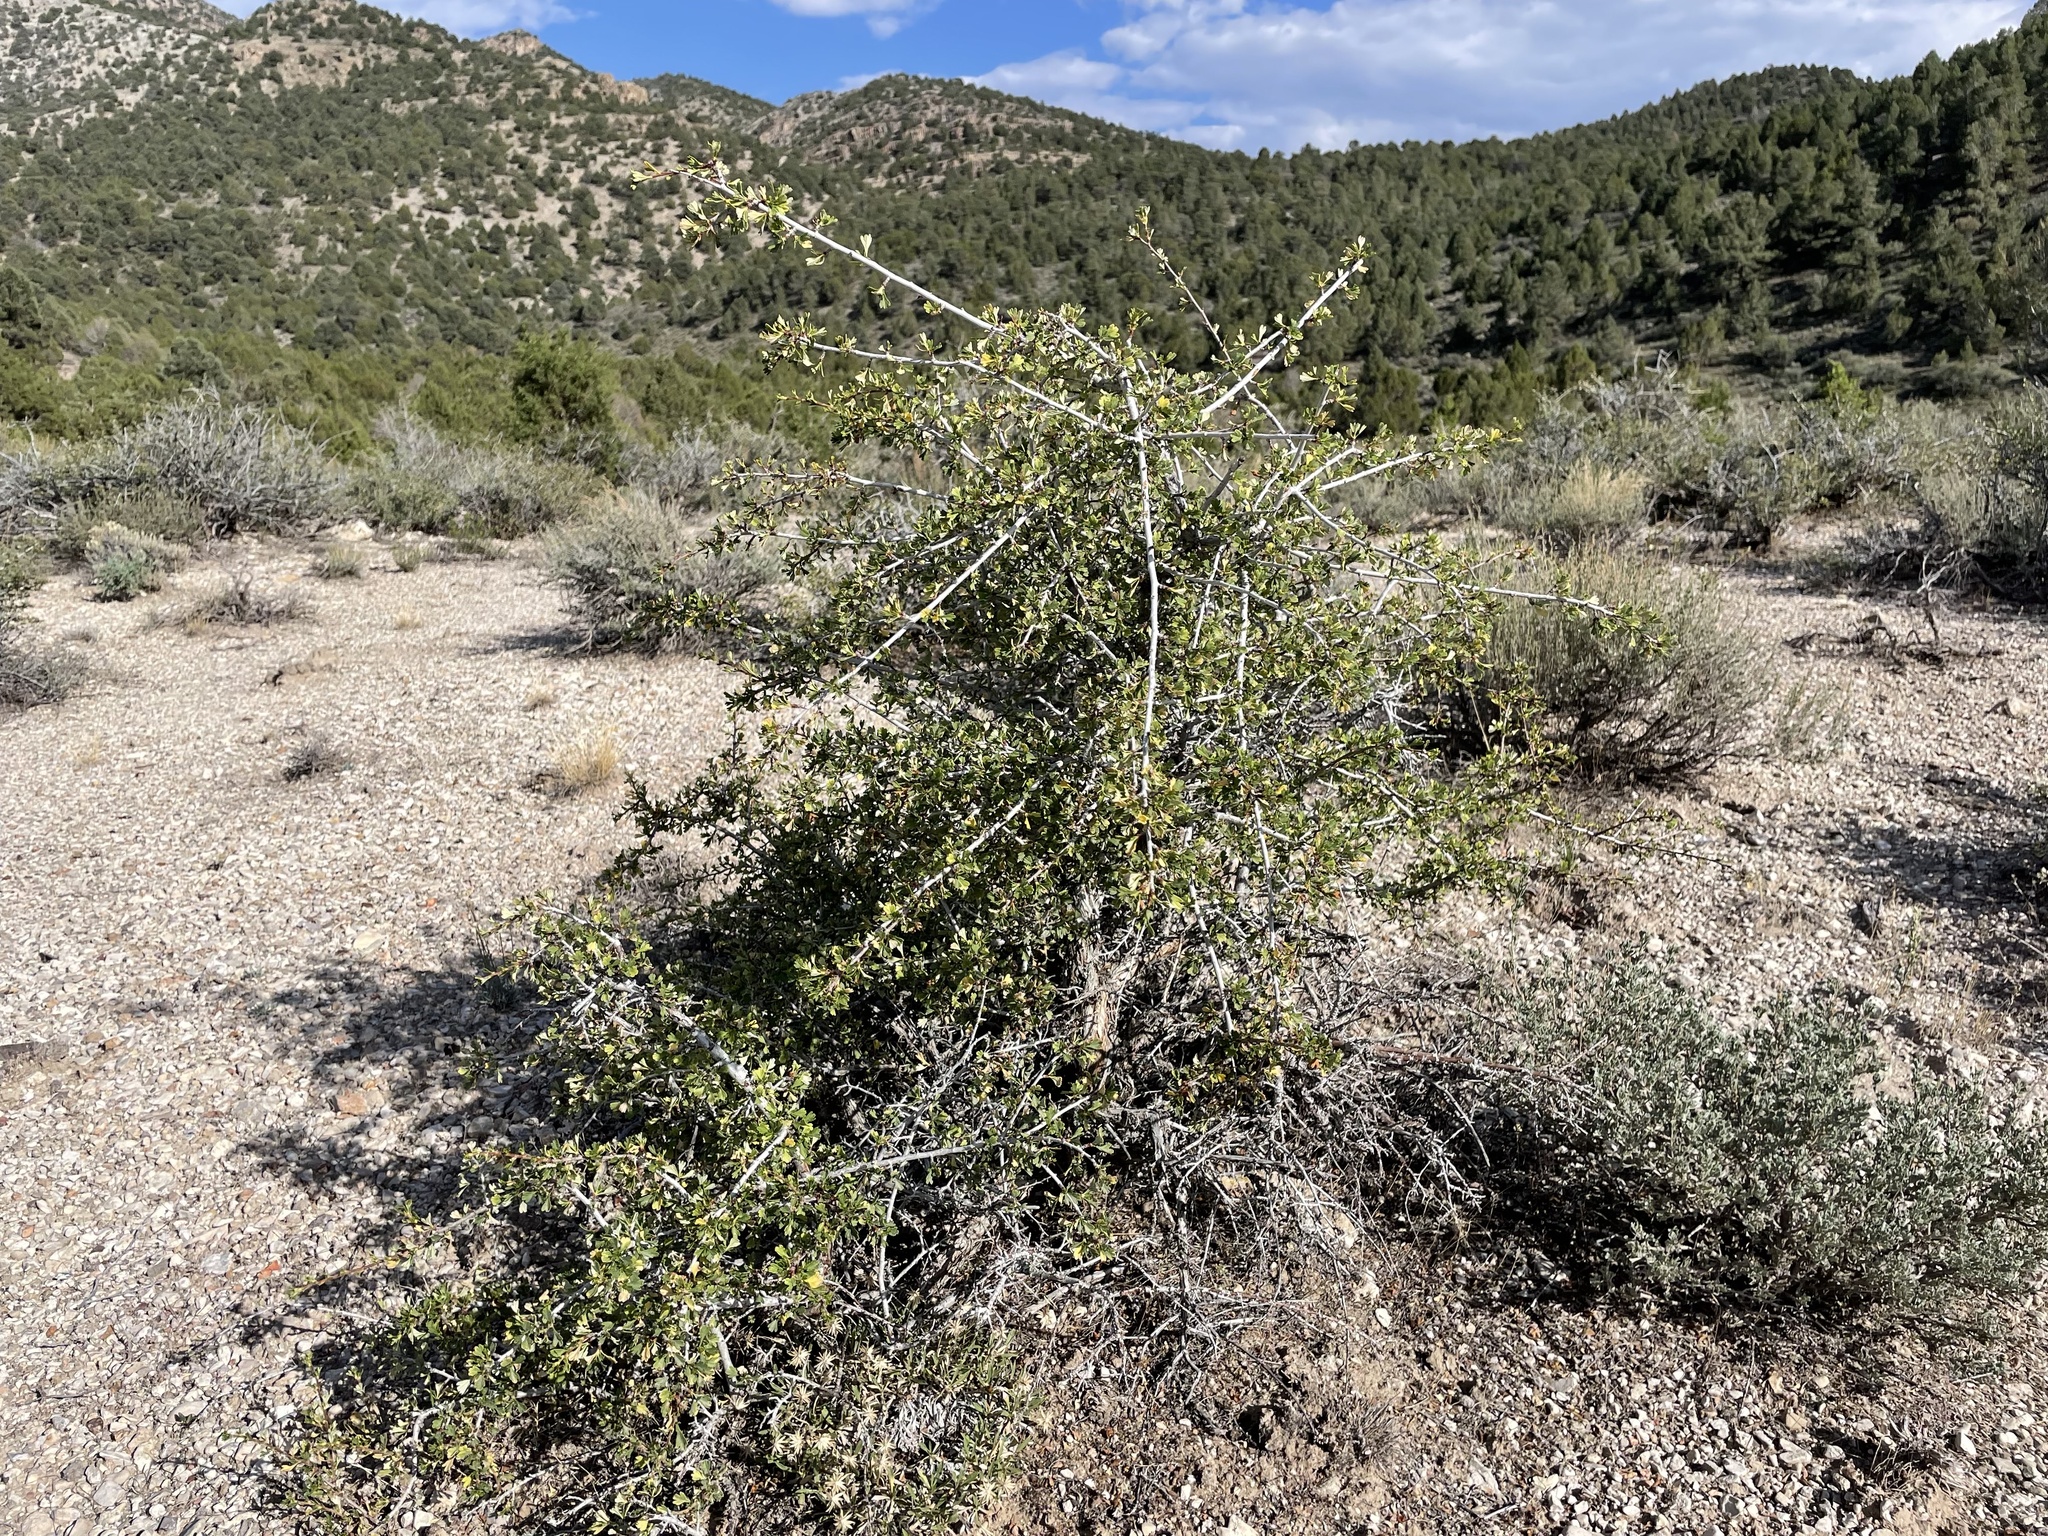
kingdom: Plantae
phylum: Tracheophyta
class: Magnoliopsida
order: Rosales
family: Rosaceae
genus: Purshia
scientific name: Purshia tridentata
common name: Antelope bitterbrush
